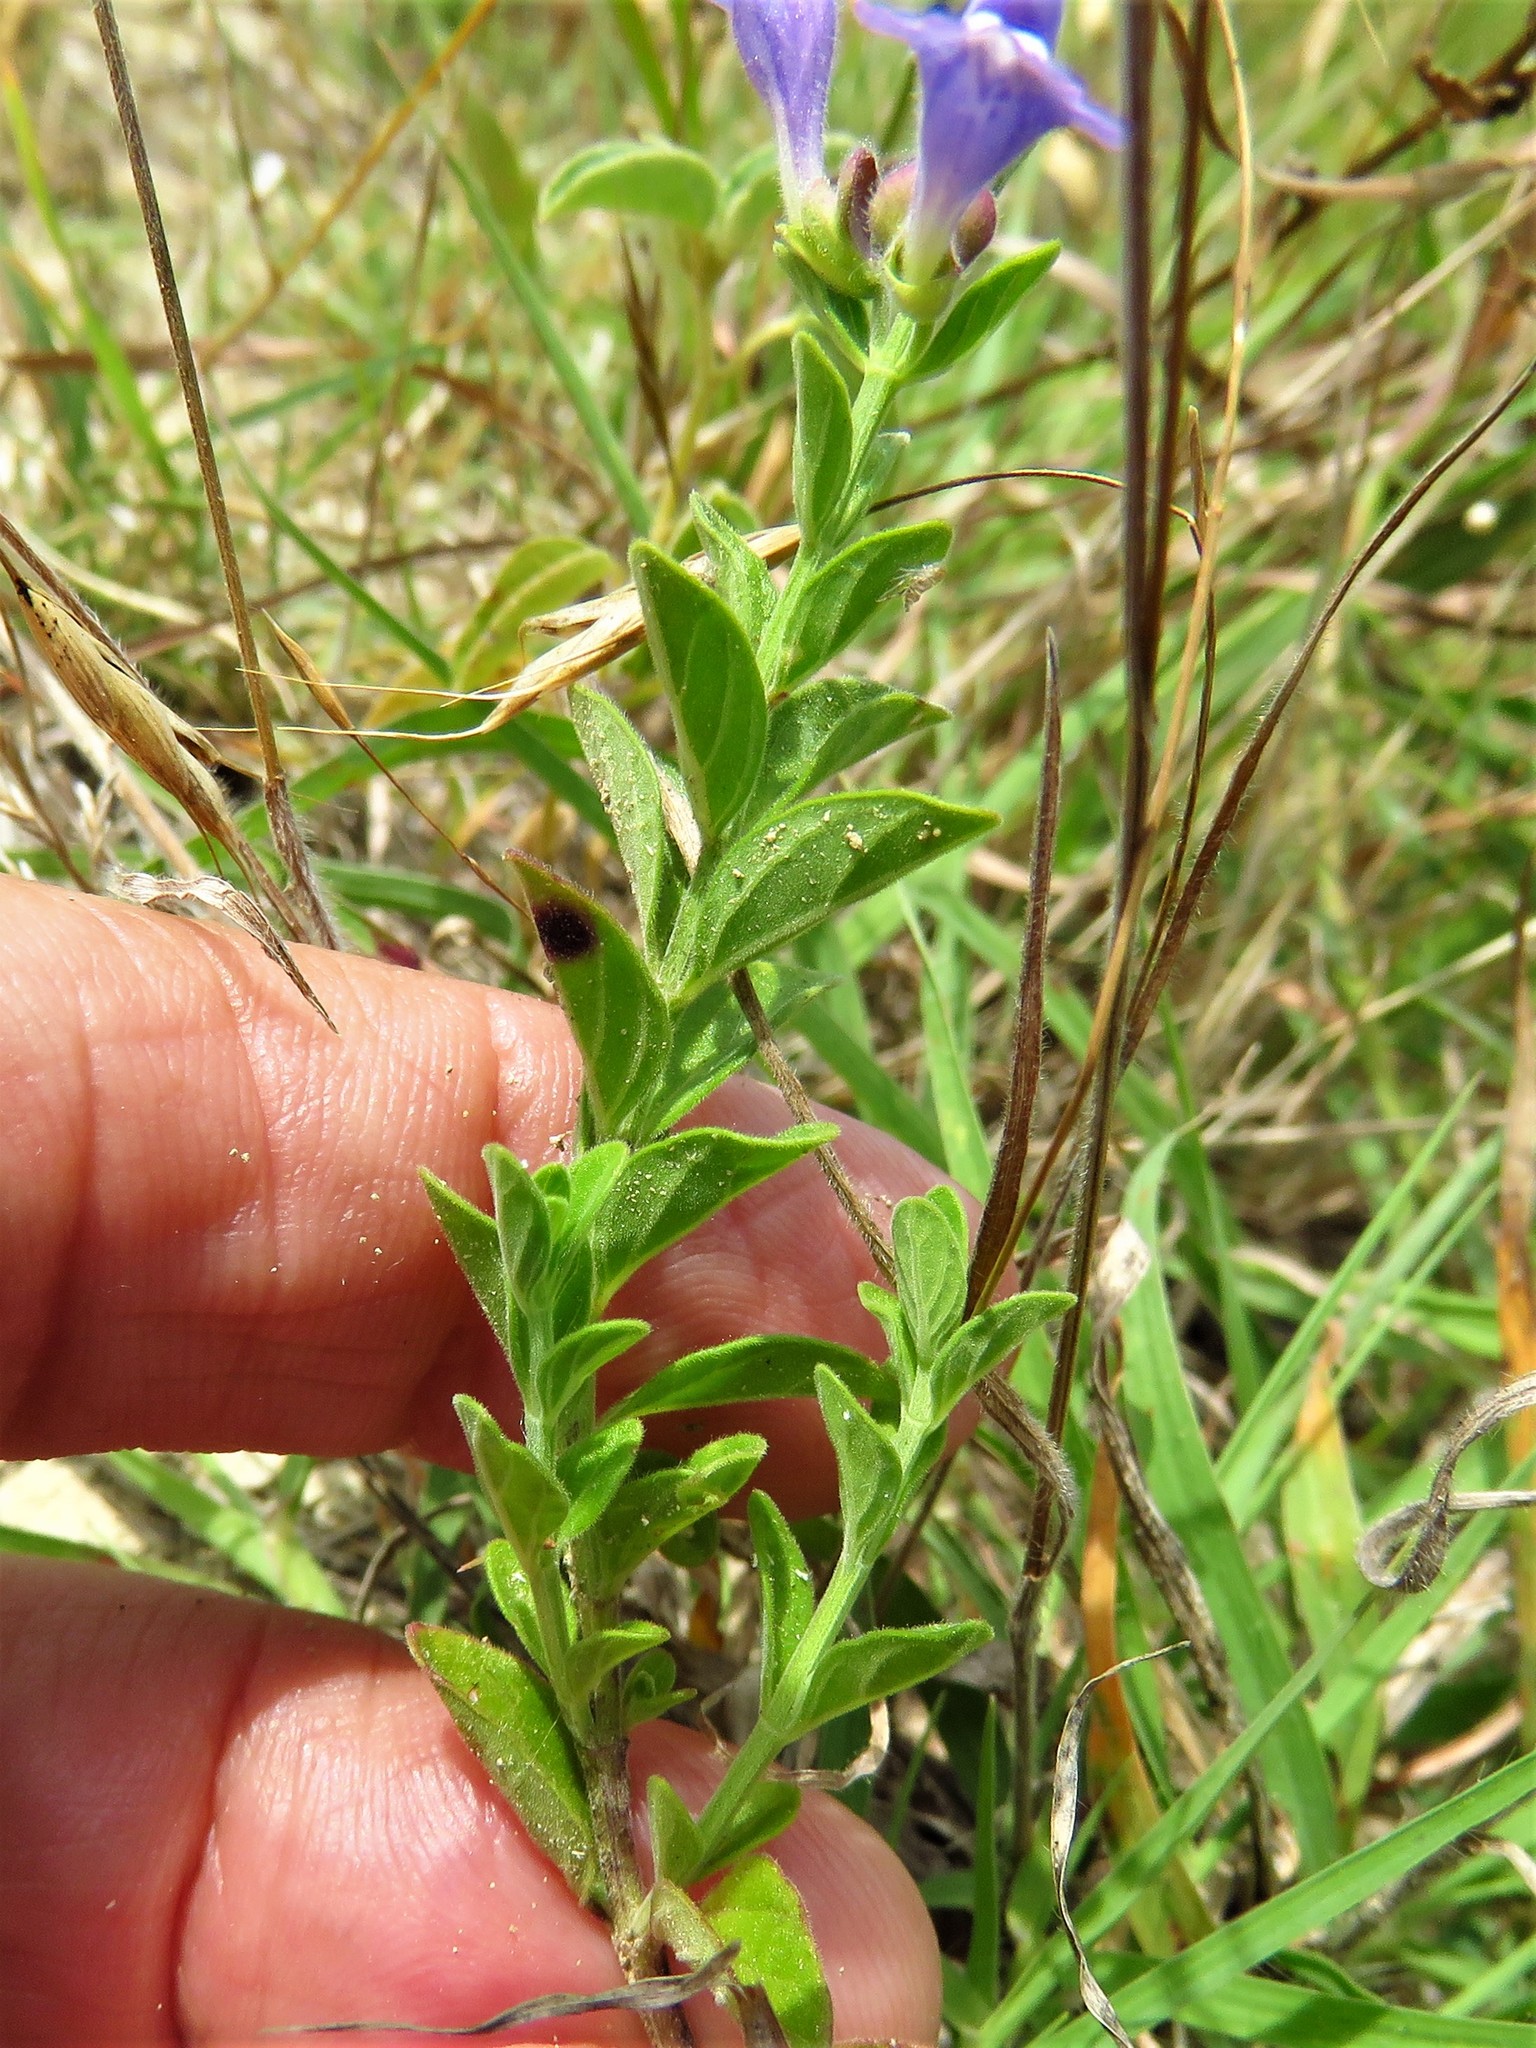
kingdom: Plantae
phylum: Tracheophyta
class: Magnoliopsida
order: Lamiales
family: Lamiaceae
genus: Scutellaria
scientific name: Scutellaria drummondii
